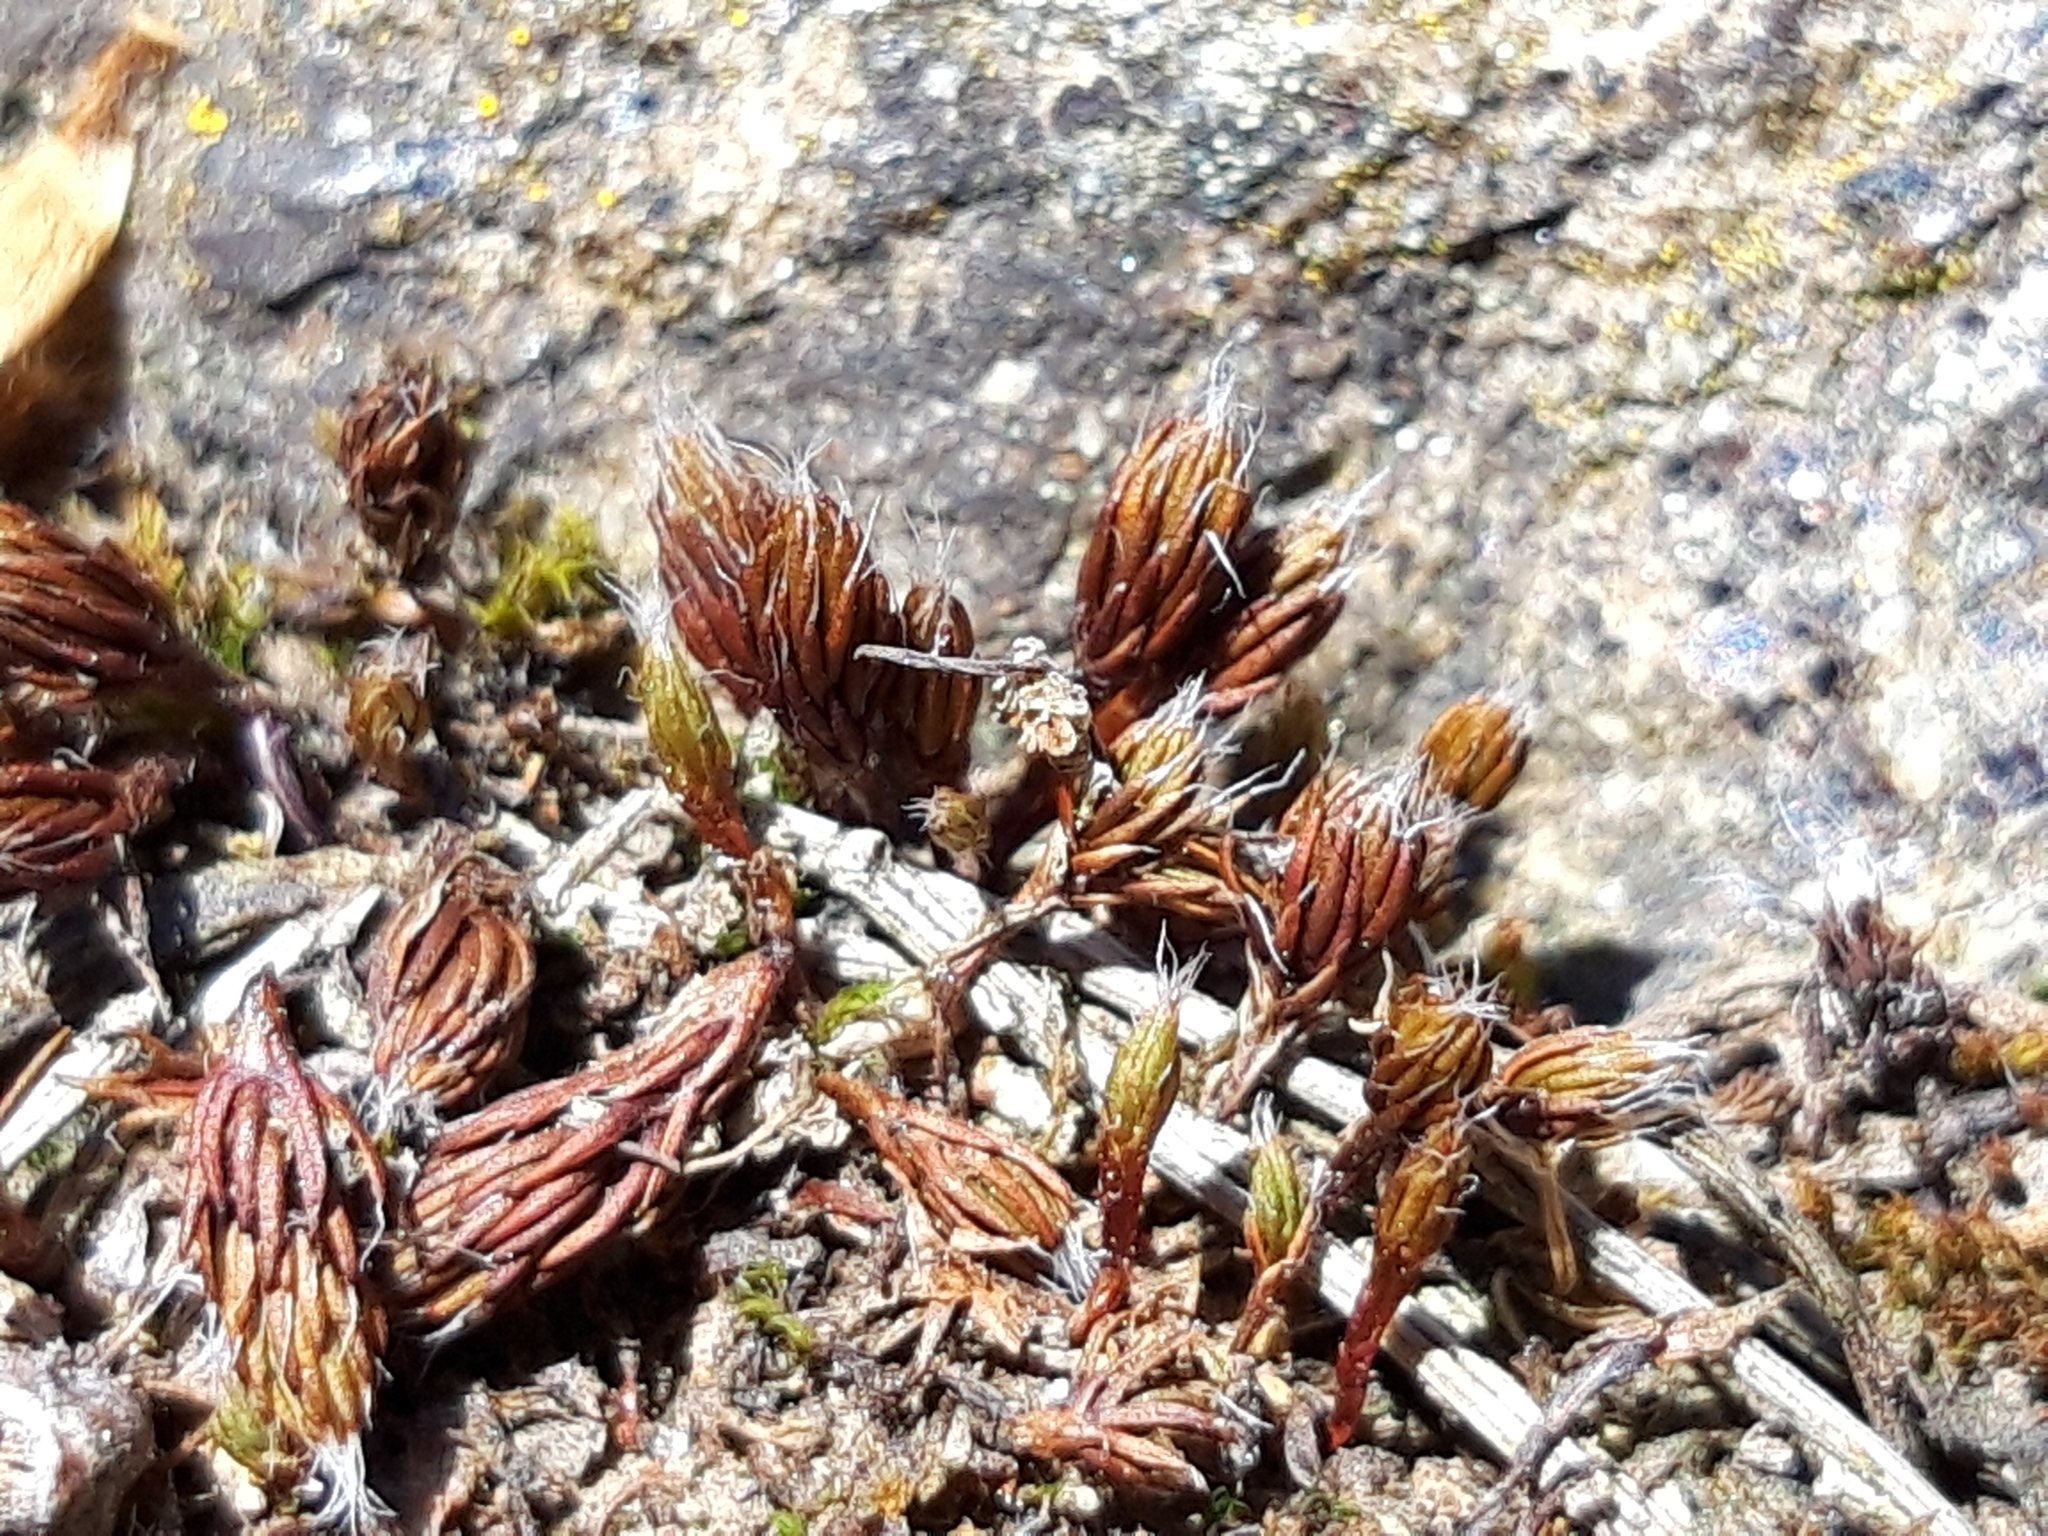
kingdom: Plantae
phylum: Bryophyta
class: Polytrichopsida
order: Polytrichales
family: Polytrichaceae
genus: Polytrichum
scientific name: Polytrichum piliferum
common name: Bristly haircap
